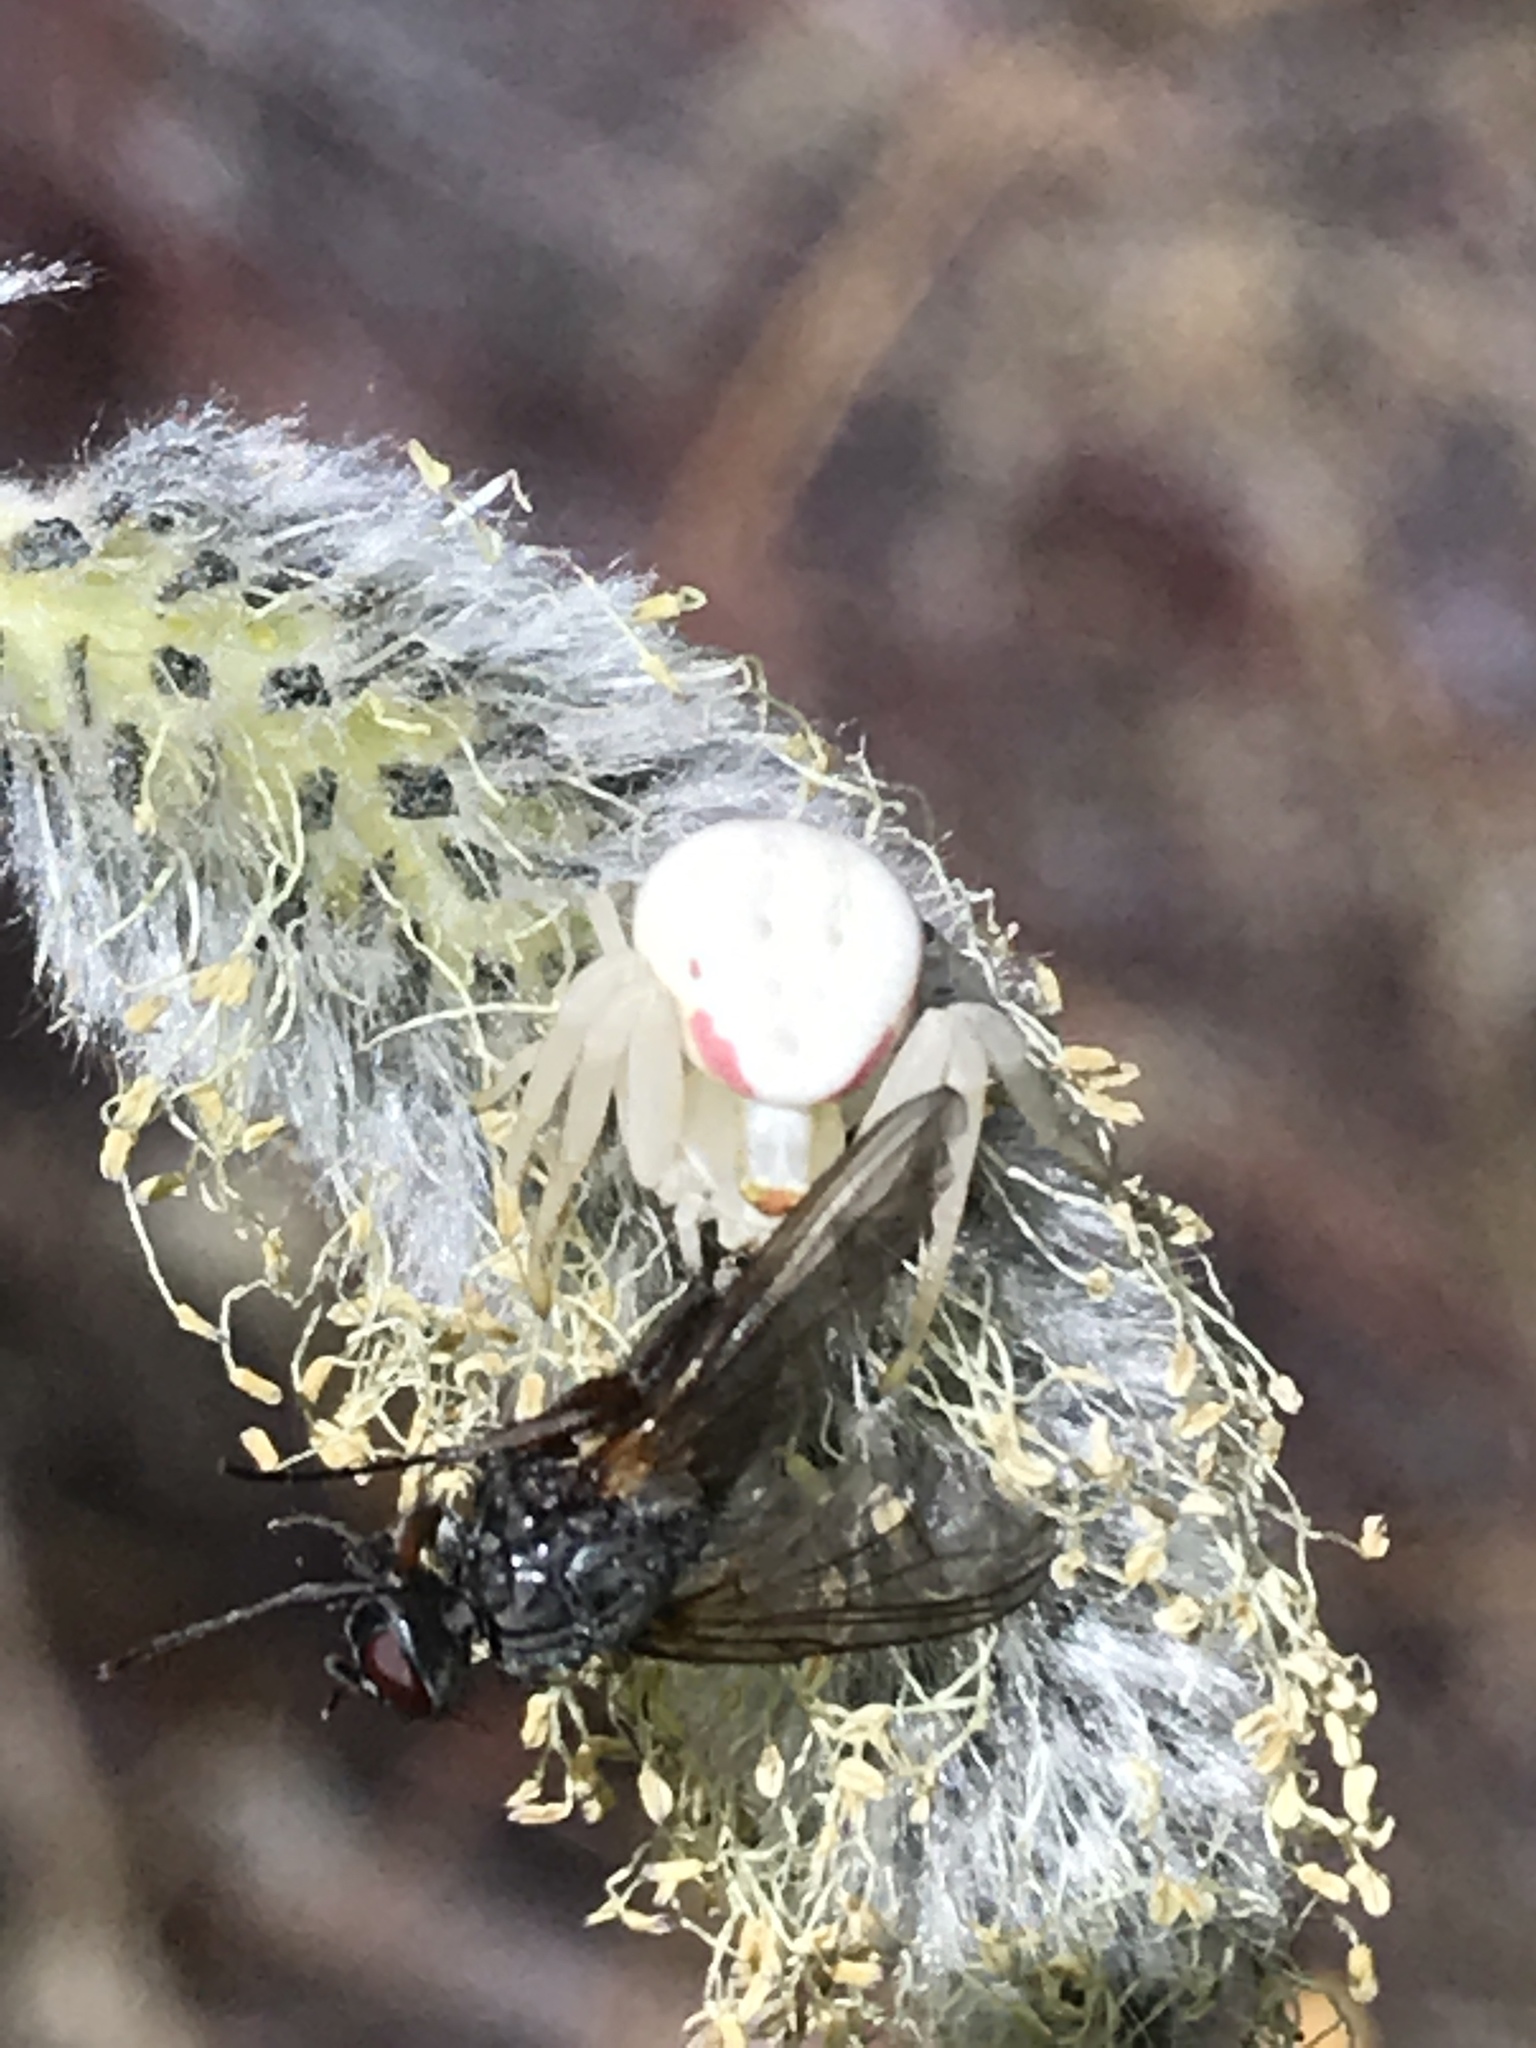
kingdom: Animalia
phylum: Arthropoda
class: Arachnida
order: Araneae
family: Thomisidae
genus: Misumena
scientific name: Misumena vatia
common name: Goldenrod crab spider
